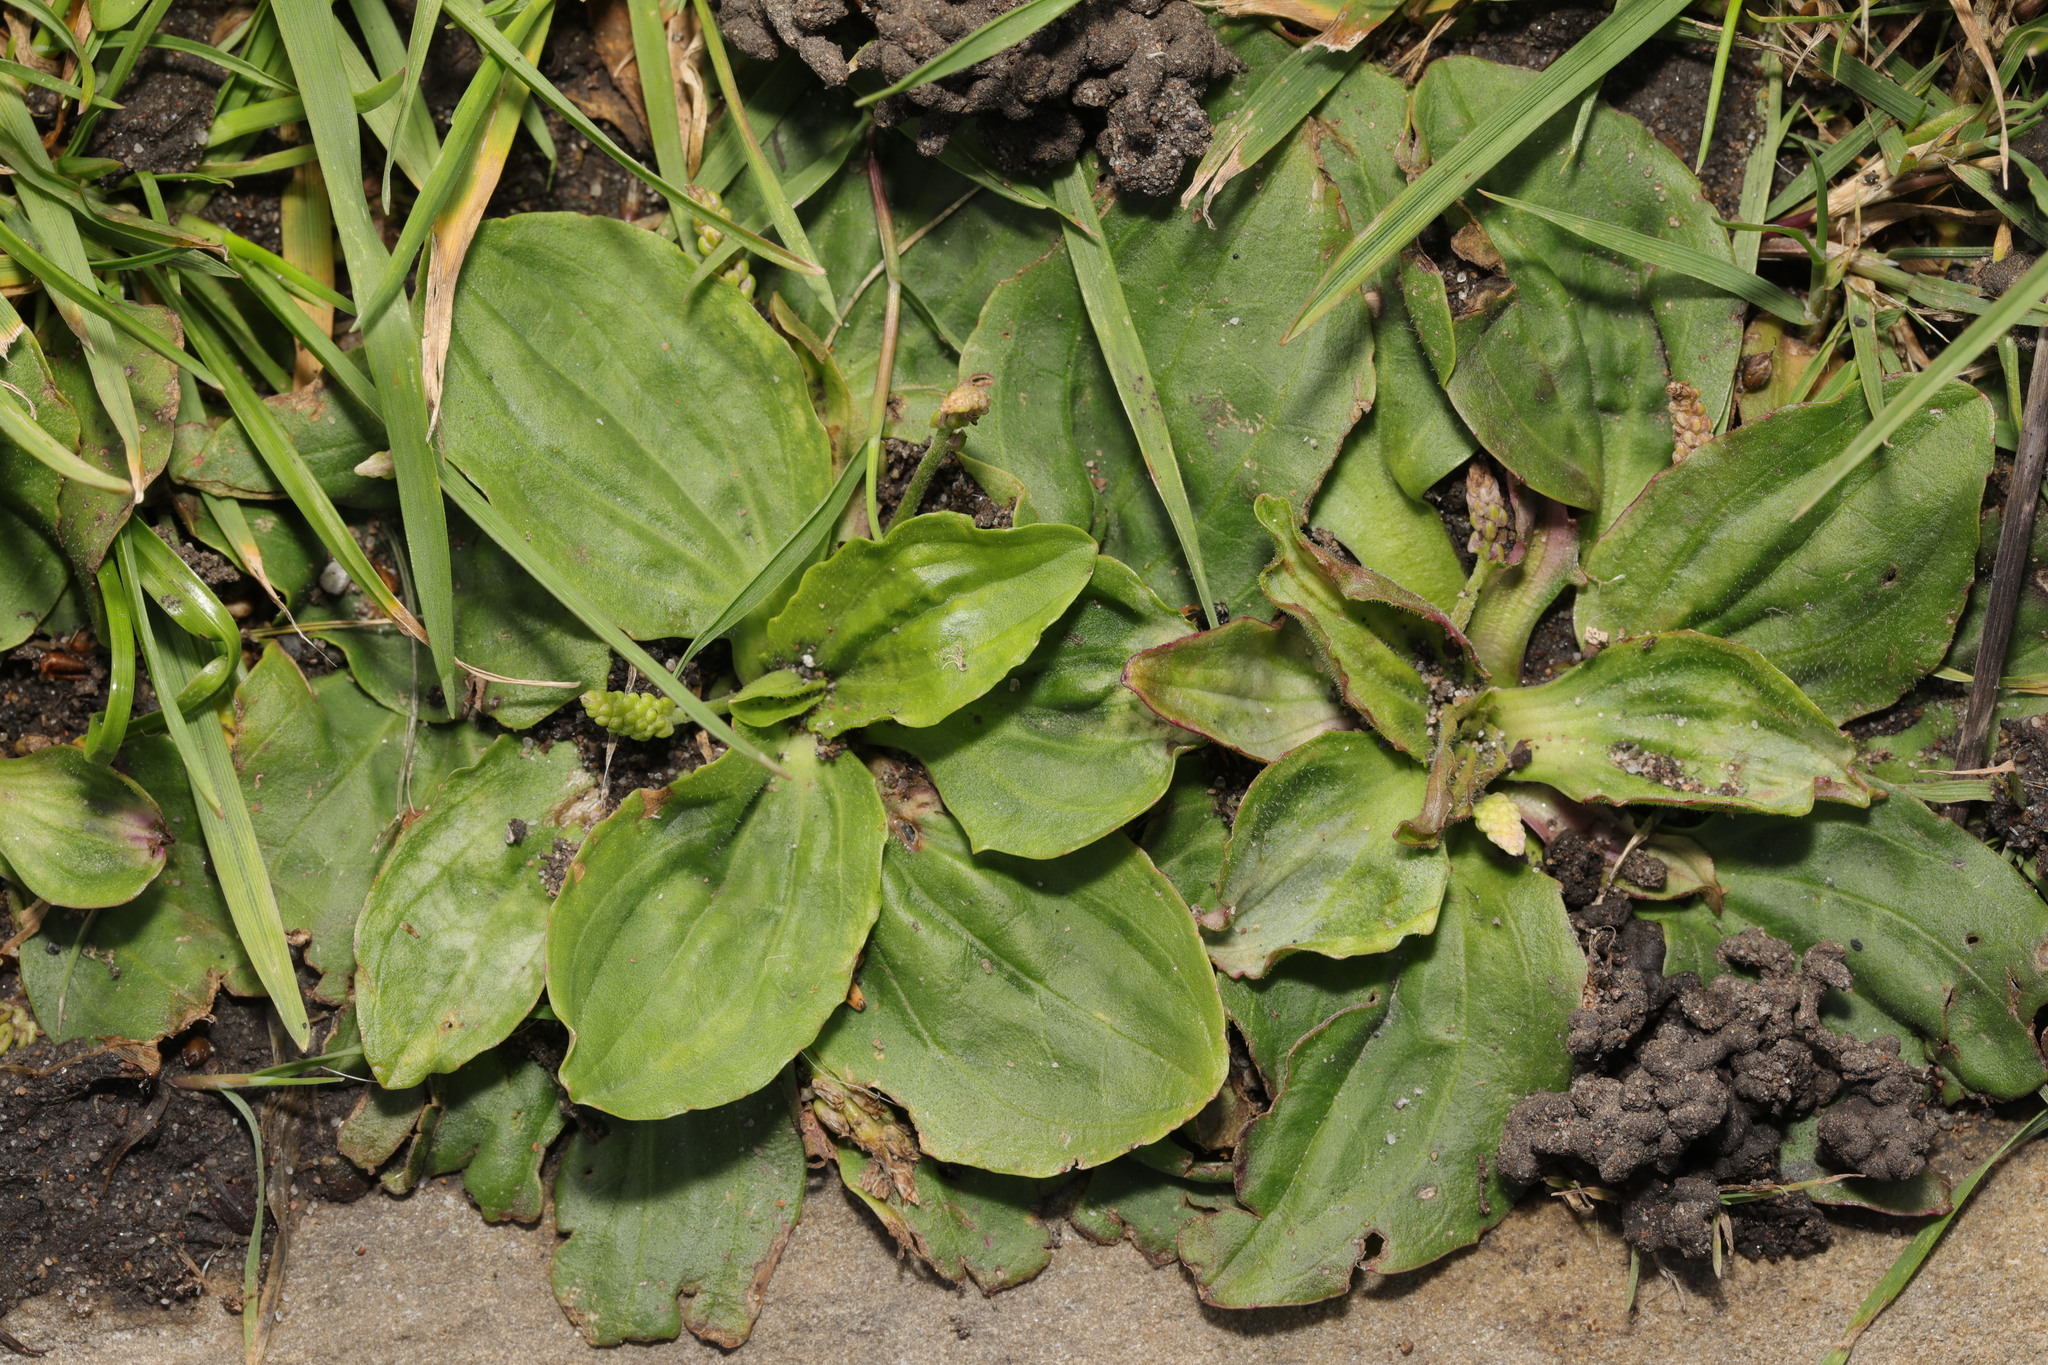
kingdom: Plantae
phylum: Tracheophyta
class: Magnoliopsida
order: Lamiales
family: Plantaginaceae
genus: Plantago
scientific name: Plantago major
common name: Common plantain
